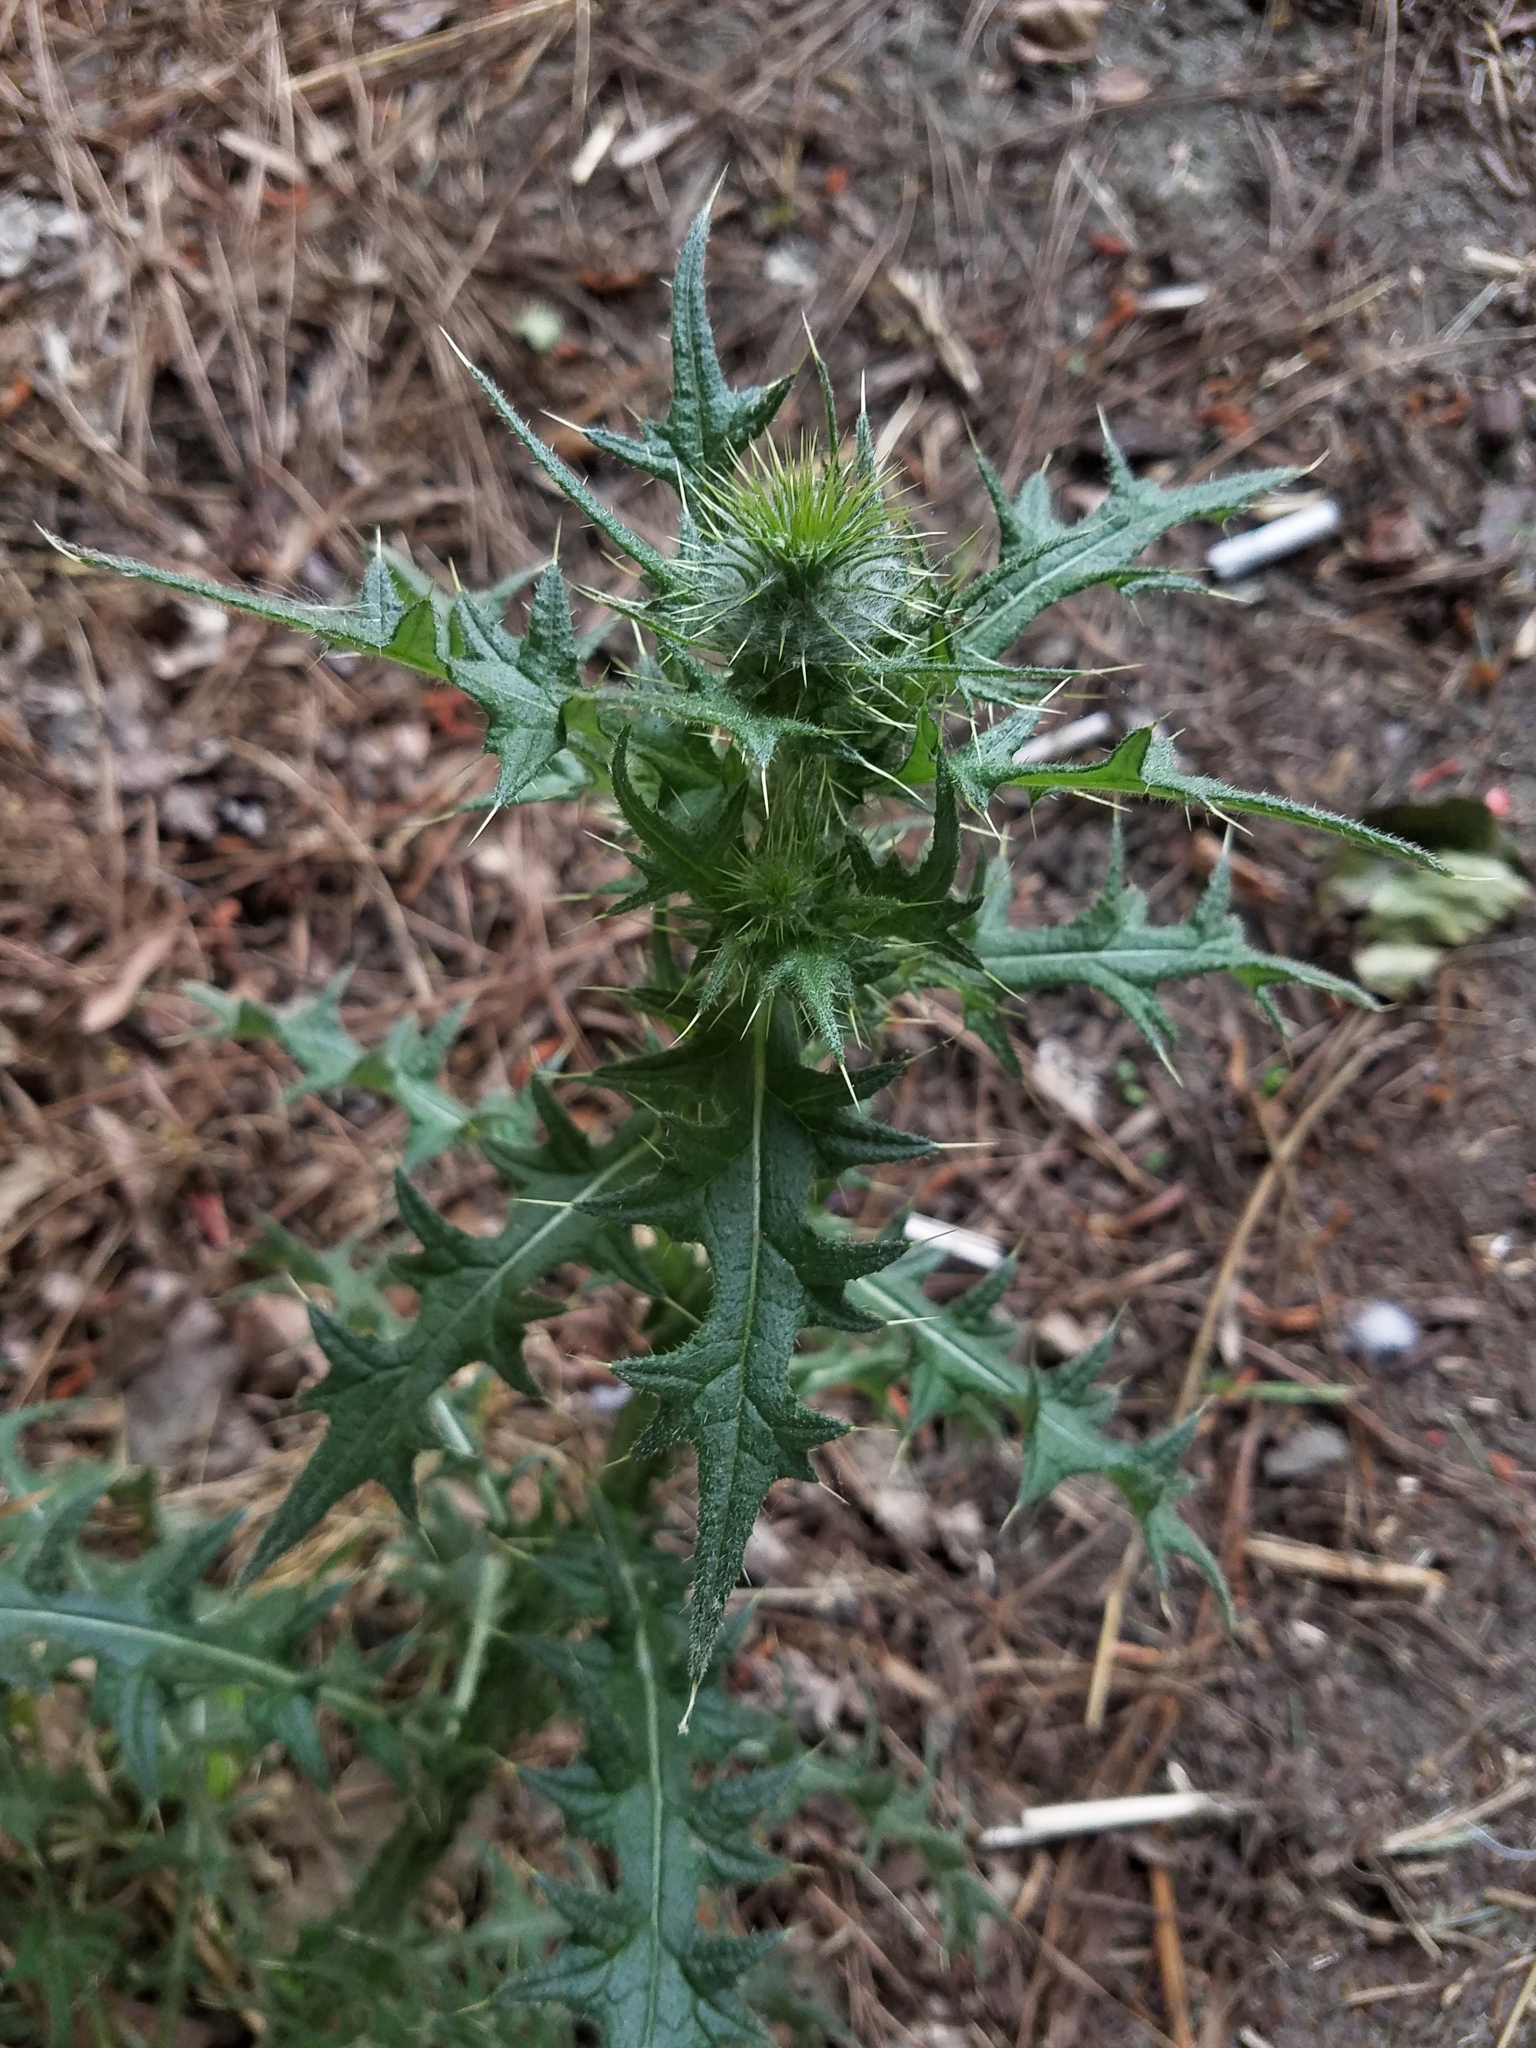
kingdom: Plantae
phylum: Tracheophyta
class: Magnoliopsida
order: Asterales
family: Asteraceae
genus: Cirsium
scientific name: Cirsium vulgare
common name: Bull thistle
